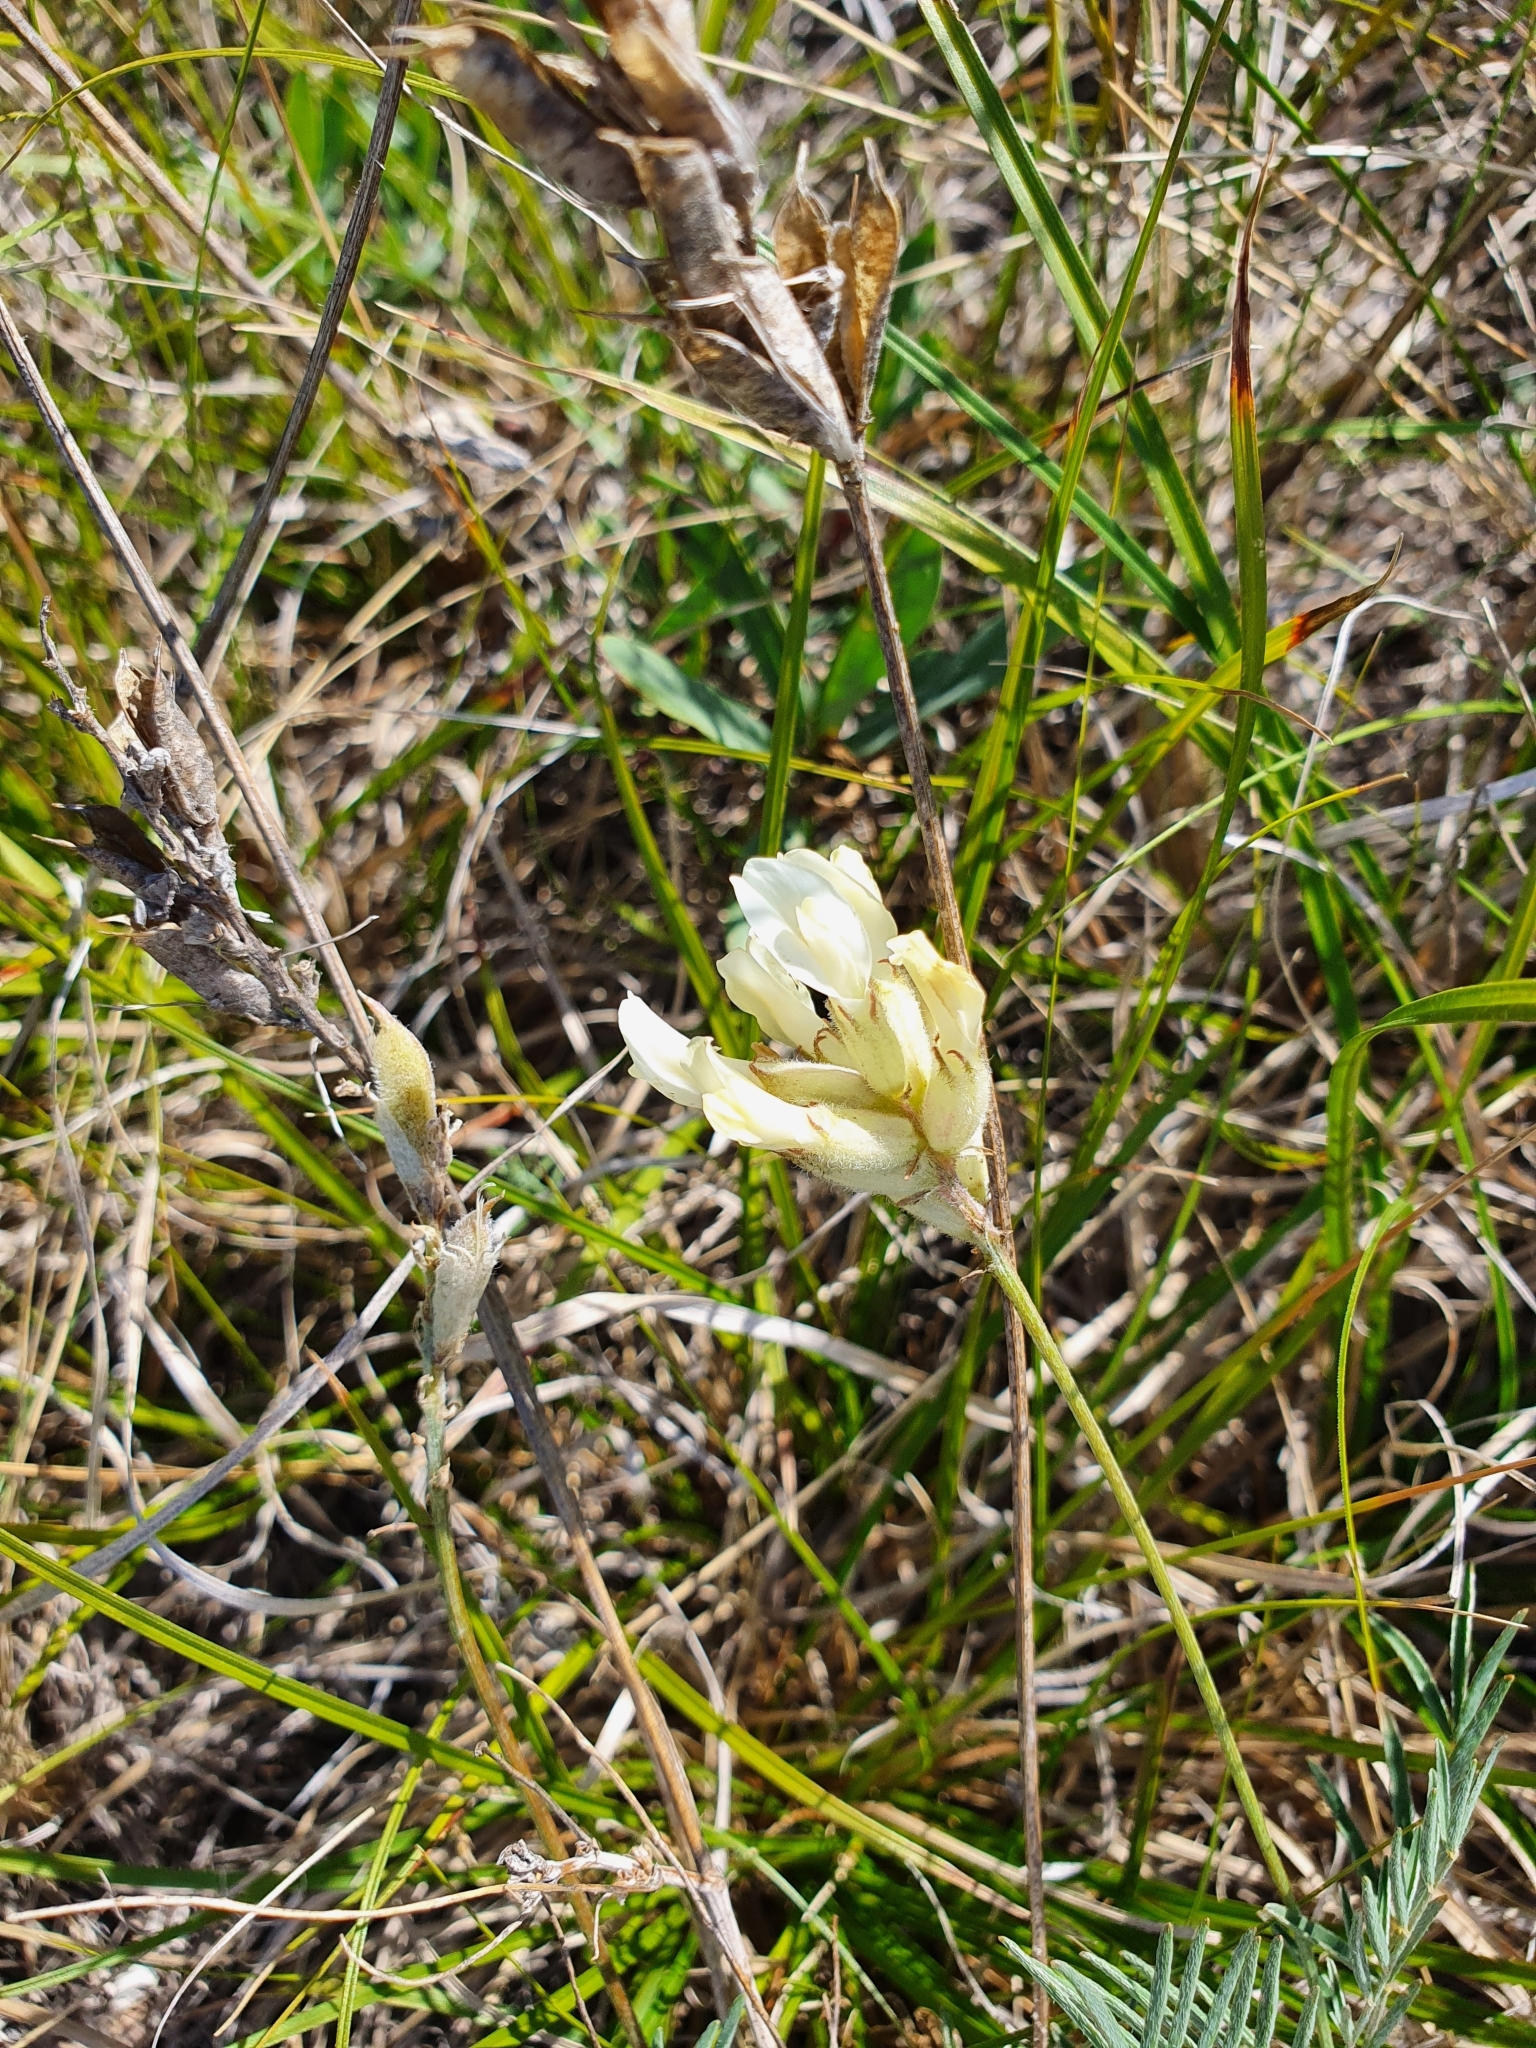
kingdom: Plantae
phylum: Tracheophyta
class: Magnoliopsida
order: Fabales
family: Fabaceae
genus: Astragalus
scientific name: Astragalus zingeri
